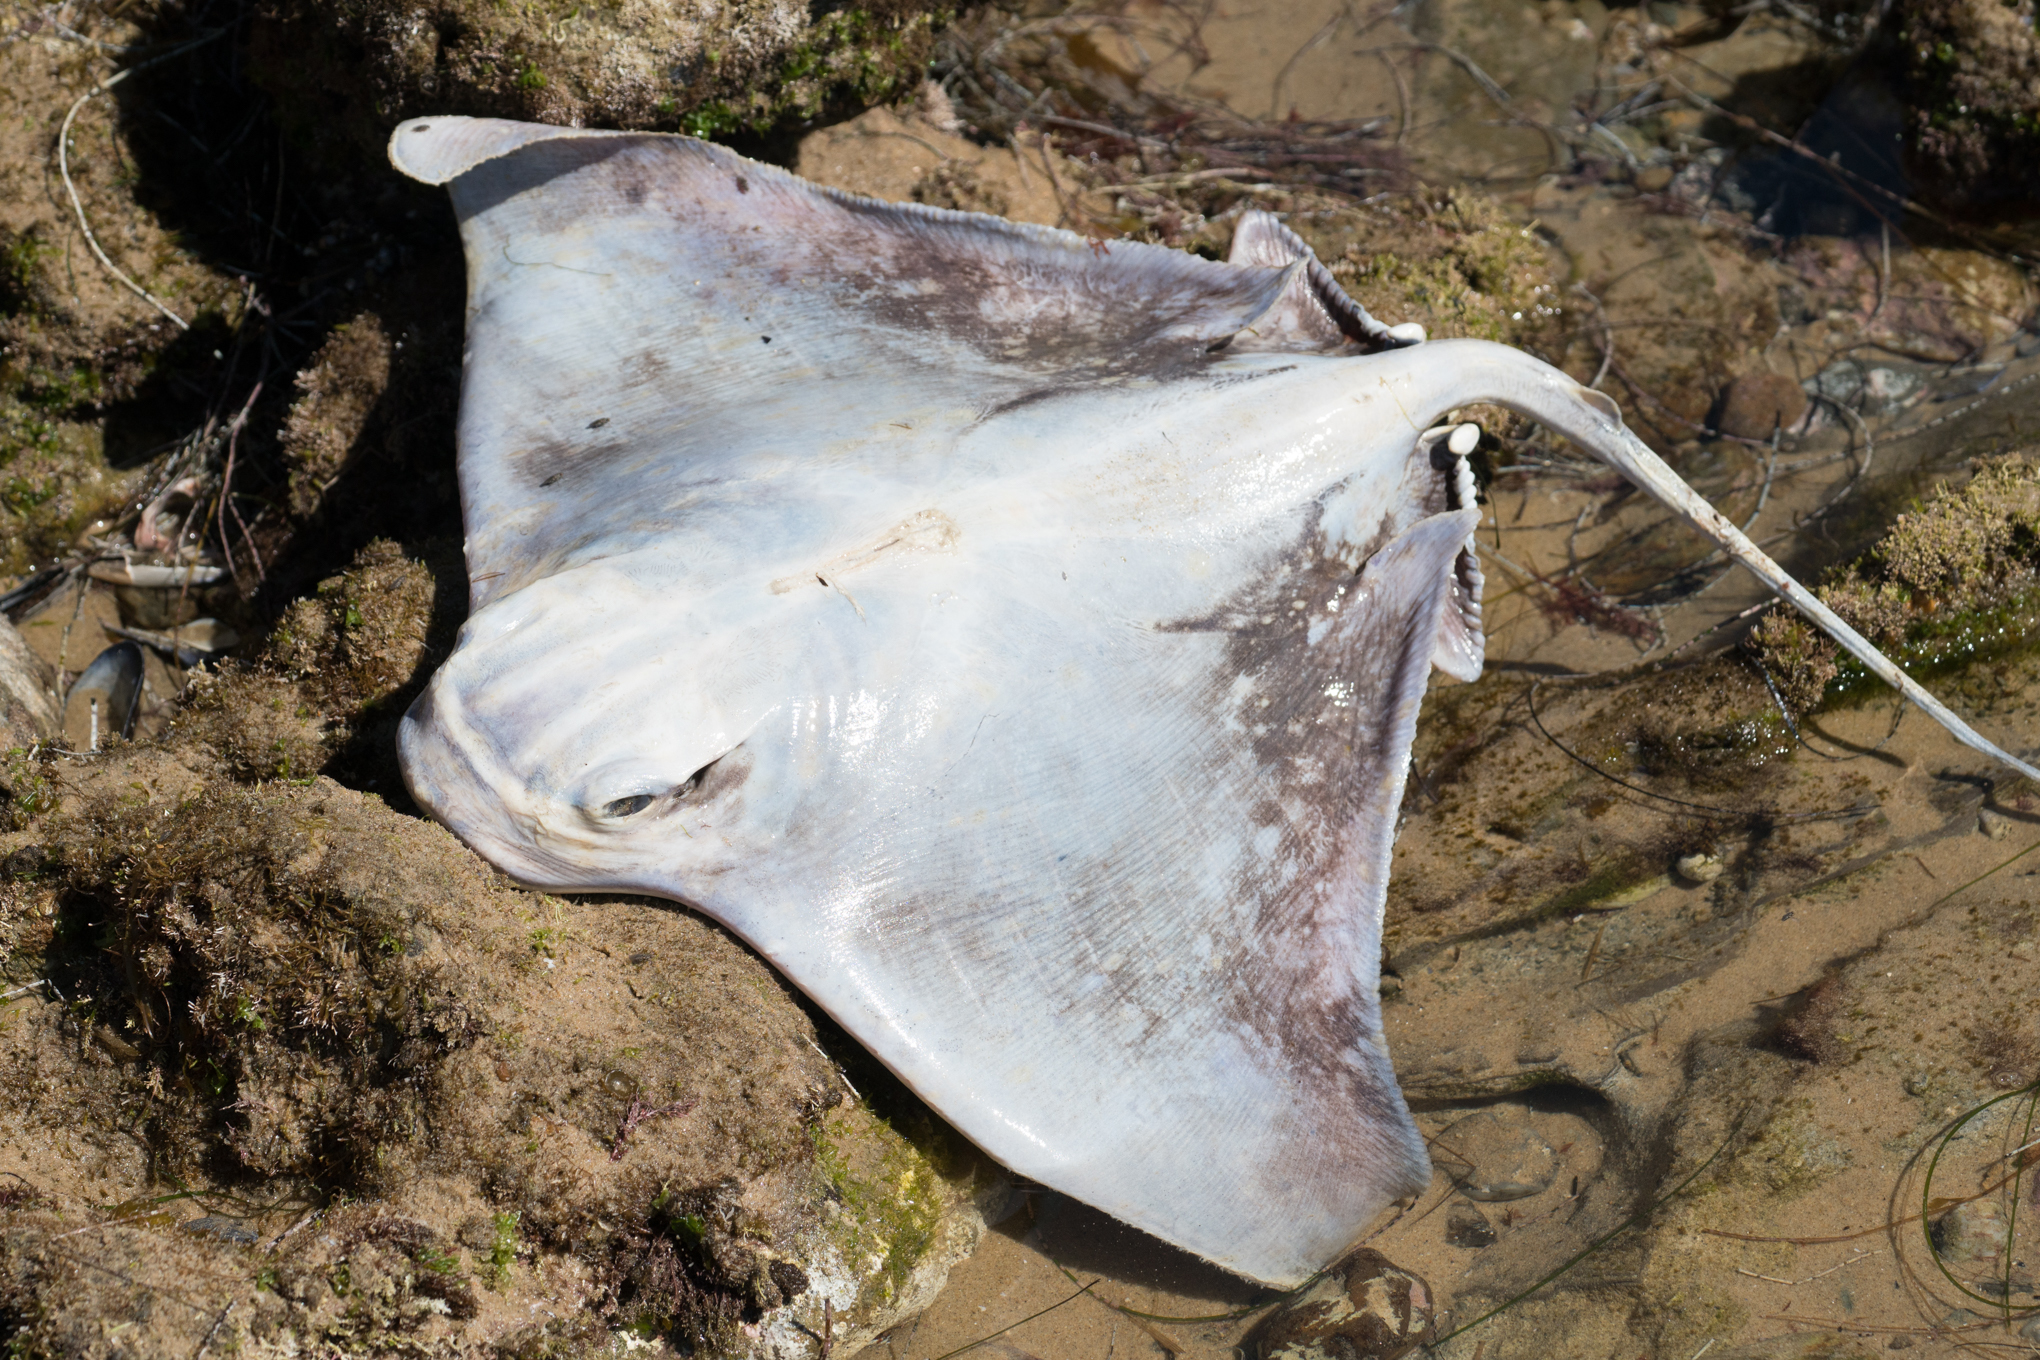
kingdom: Animalia
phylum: Chordata
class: Elasmobranchii
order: Myliobatiformes
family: Myliobatidae
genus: Myliobatis
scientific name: Myliobatis californica
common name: Bat ray
